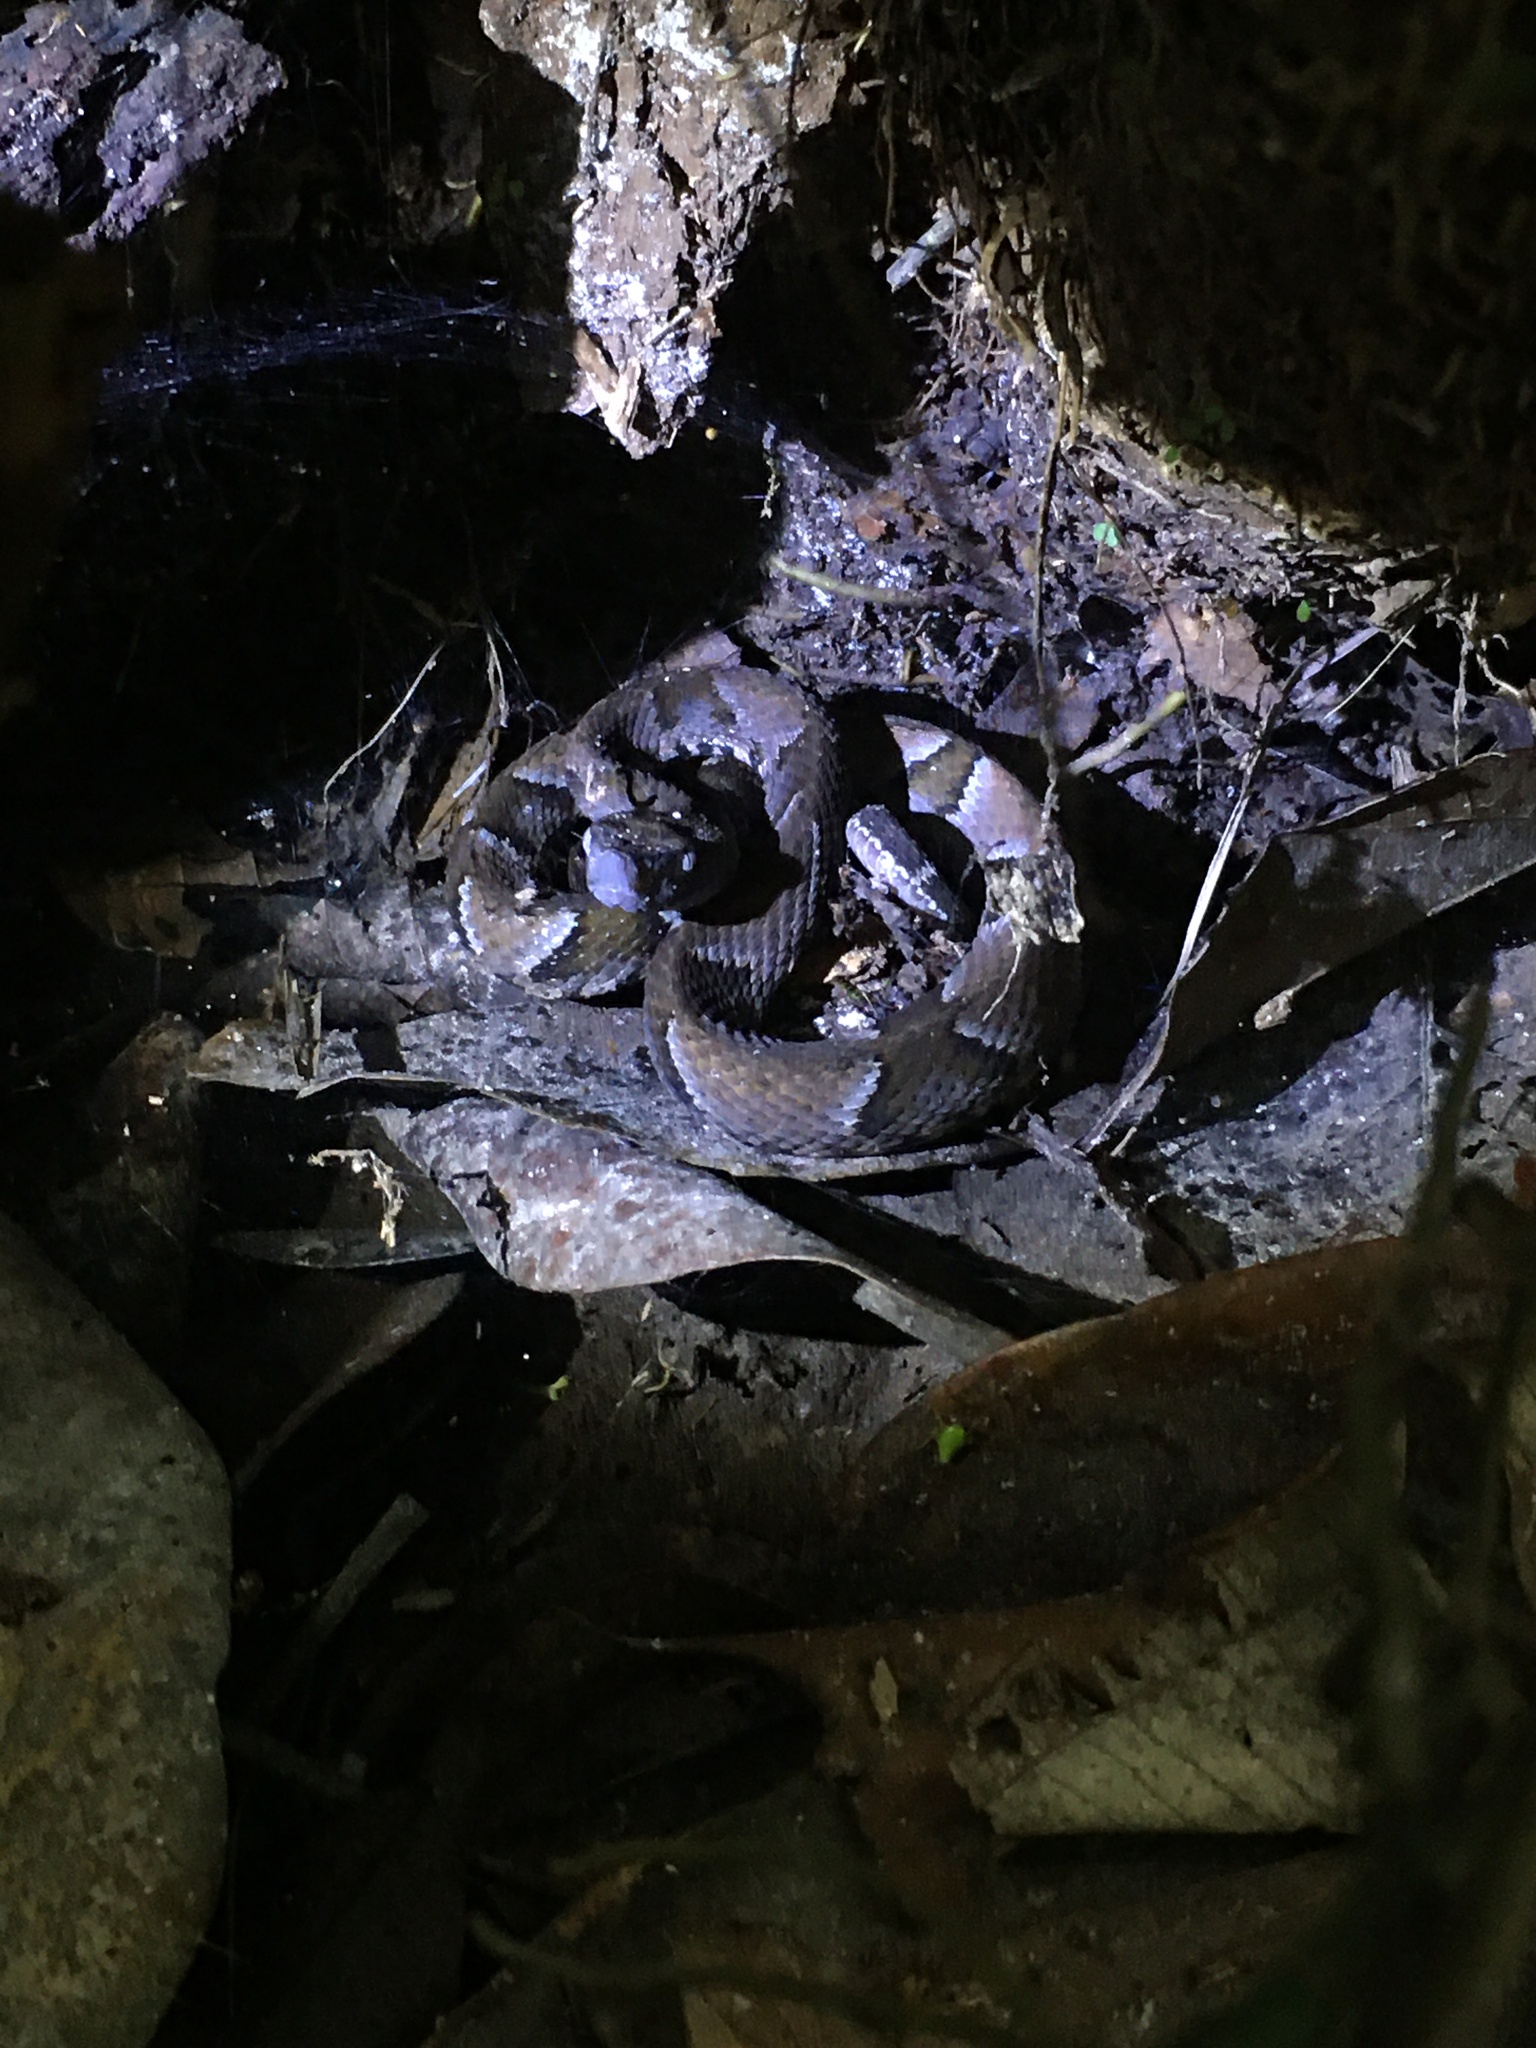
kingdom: Animalia
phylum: Chordata
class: Squamata
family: Viperidae
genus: Bothrops
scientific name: Bothrops muriciensis
